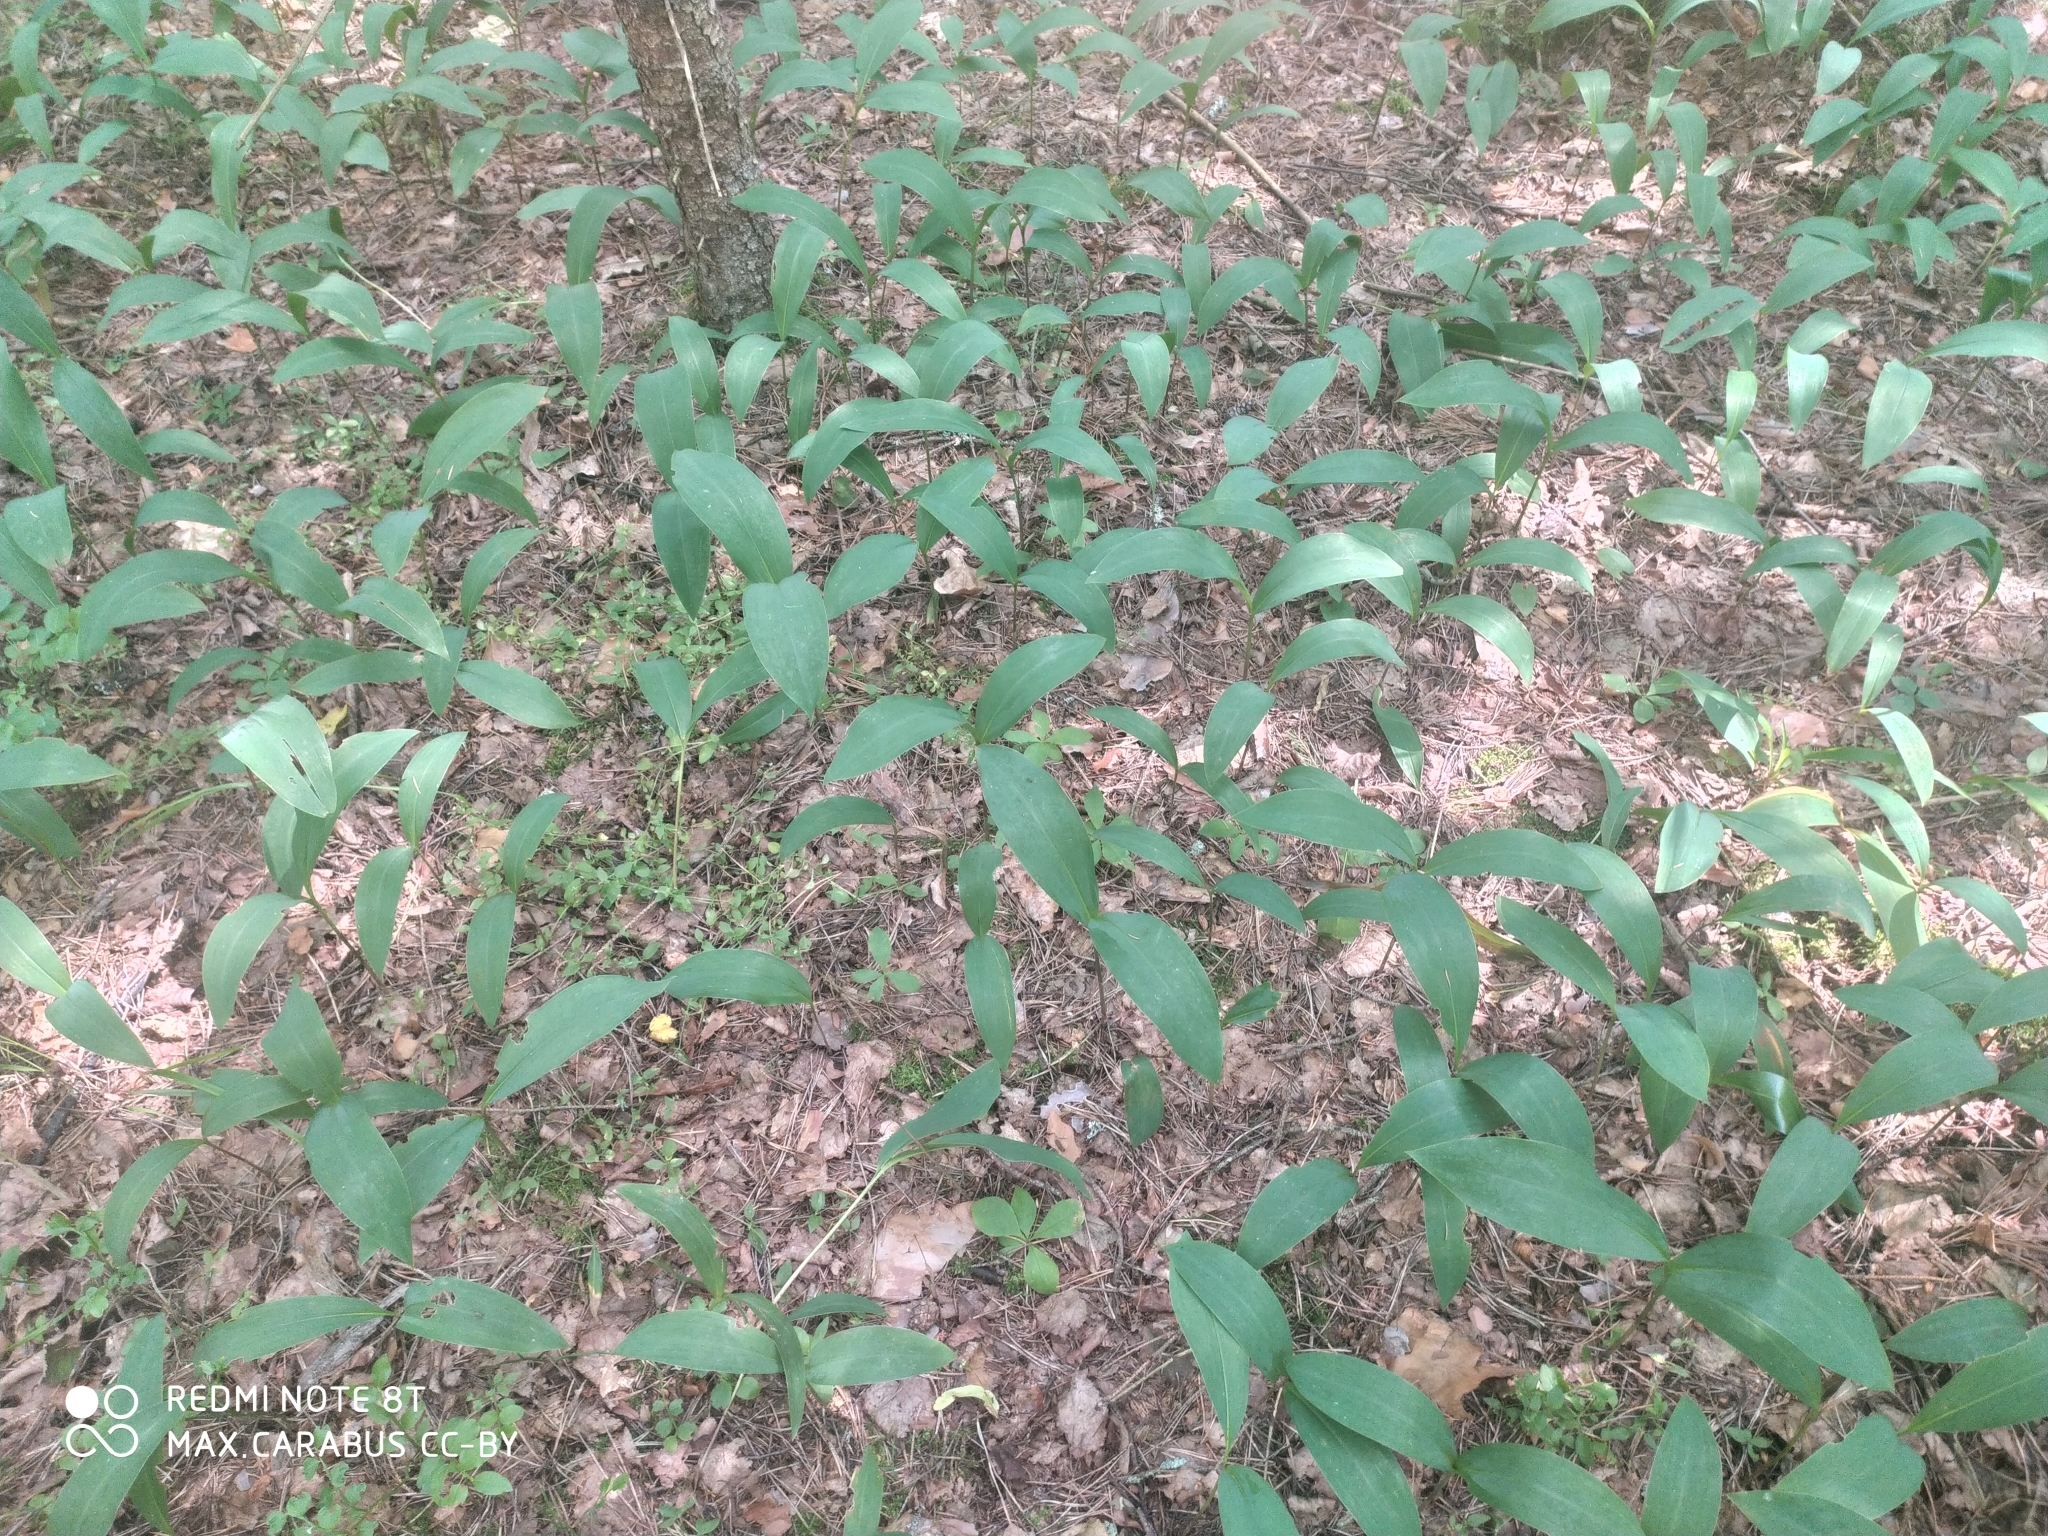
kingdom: Plantae
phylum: Tracheophyta
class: Liliopsida
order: Asparagales
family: Asparagaceae
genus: Convallaria
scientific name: Convallaria majalis
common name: Lily-of-the-valley
